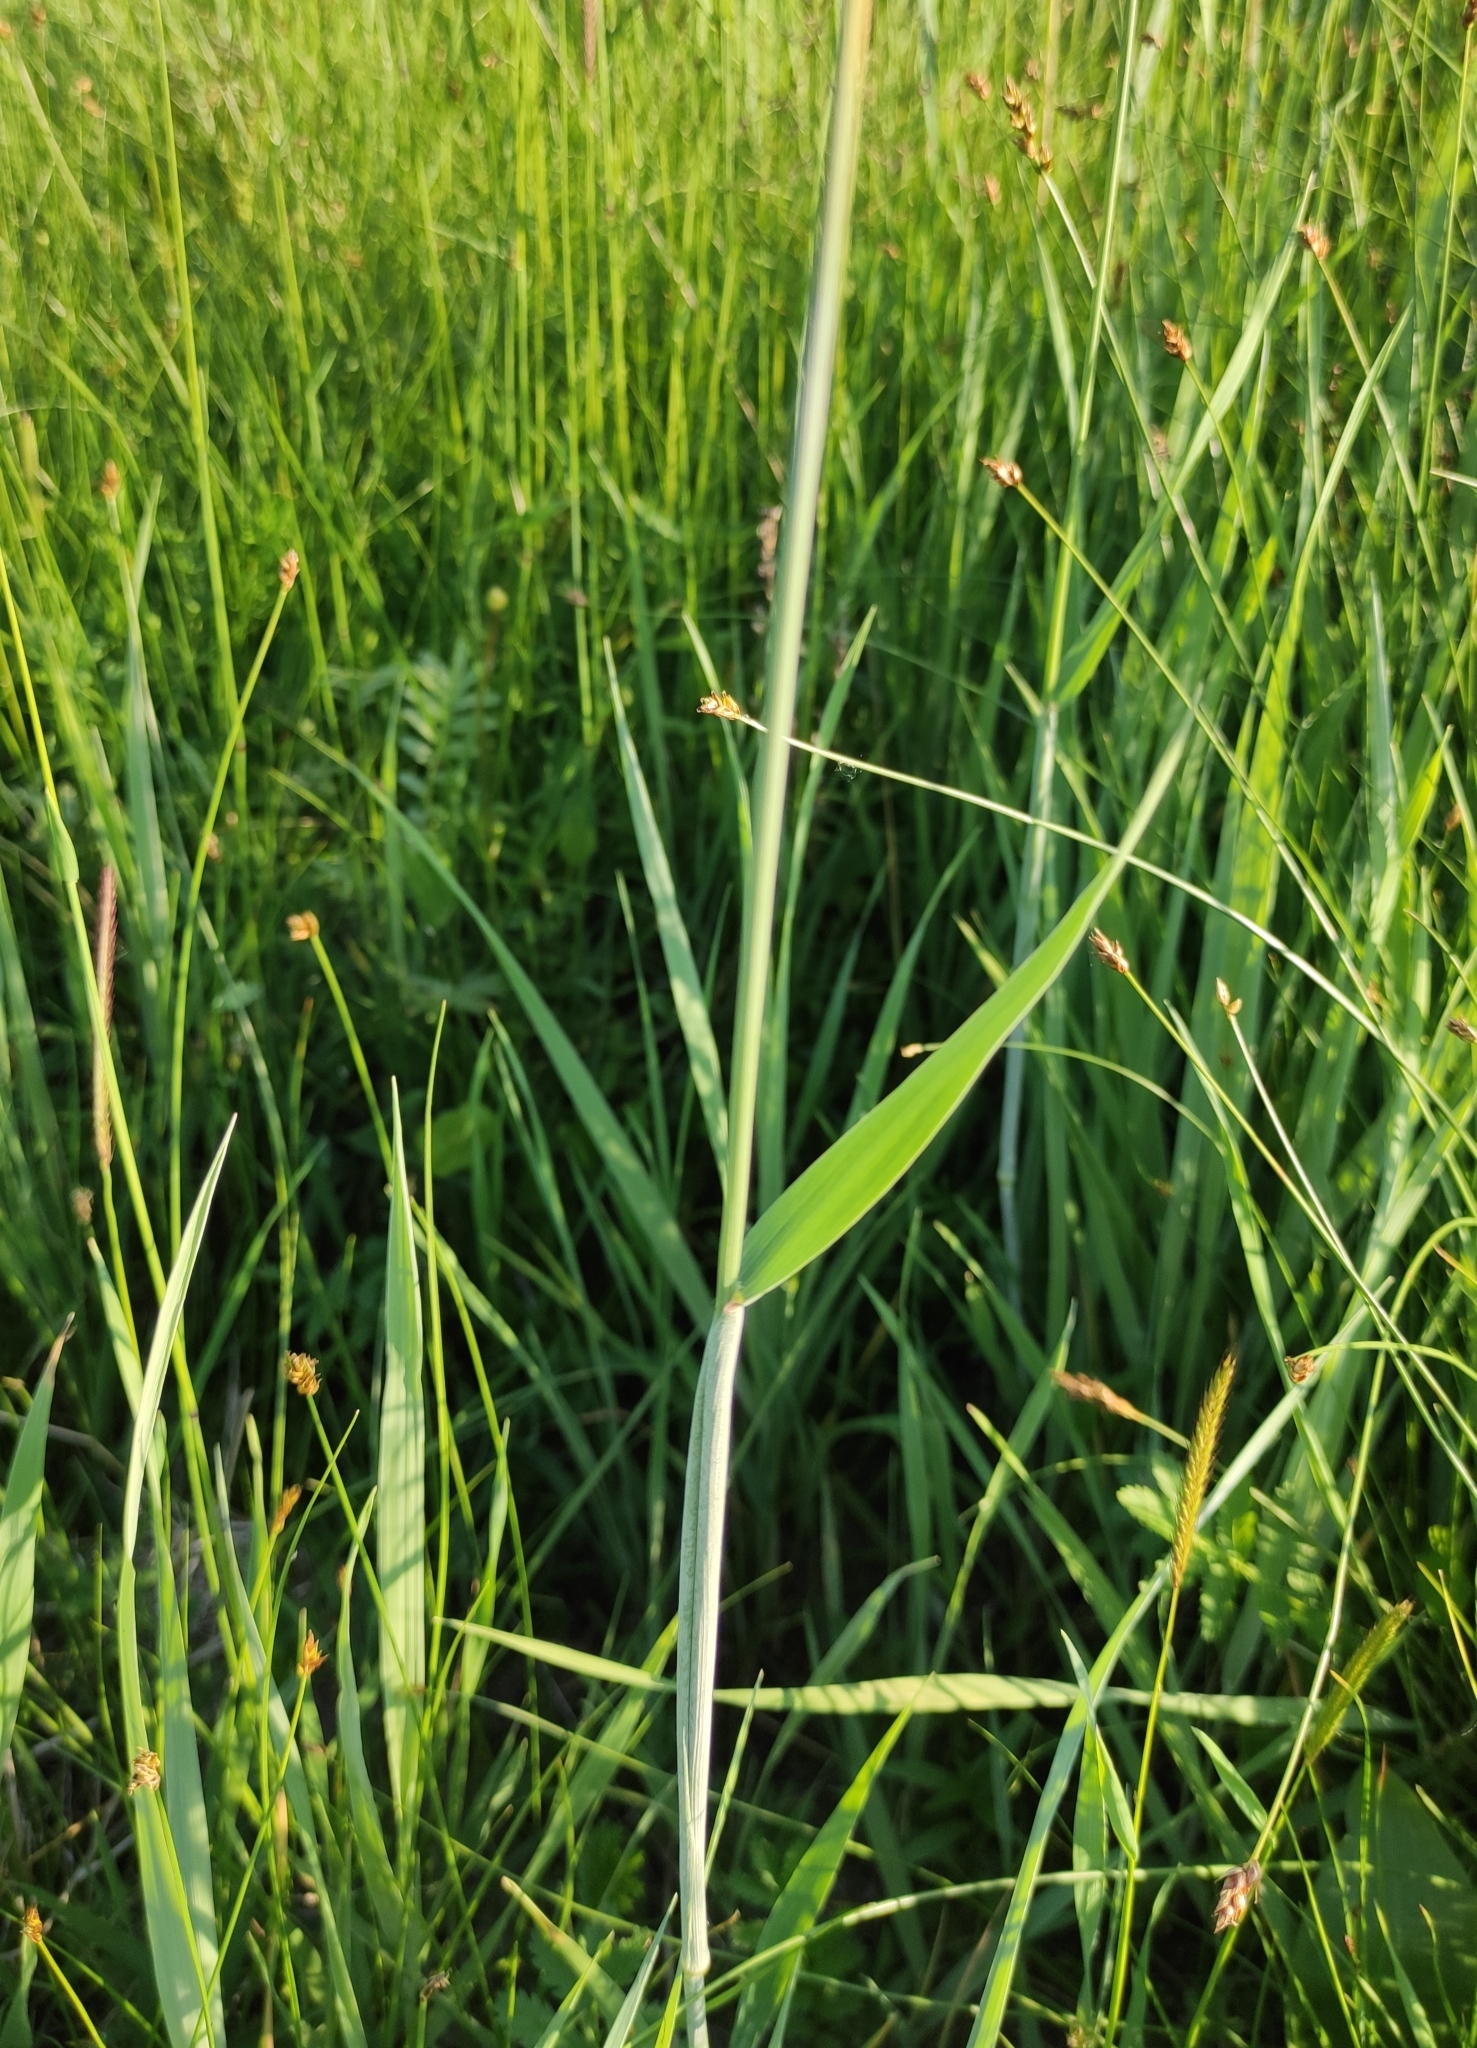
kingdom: Plantae
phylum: Tracheophyta
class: Liliopsida
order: Poales
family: Poaceae
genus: Alopecurus
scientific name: Alopecurus pratensis
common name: Meadow foxtail
